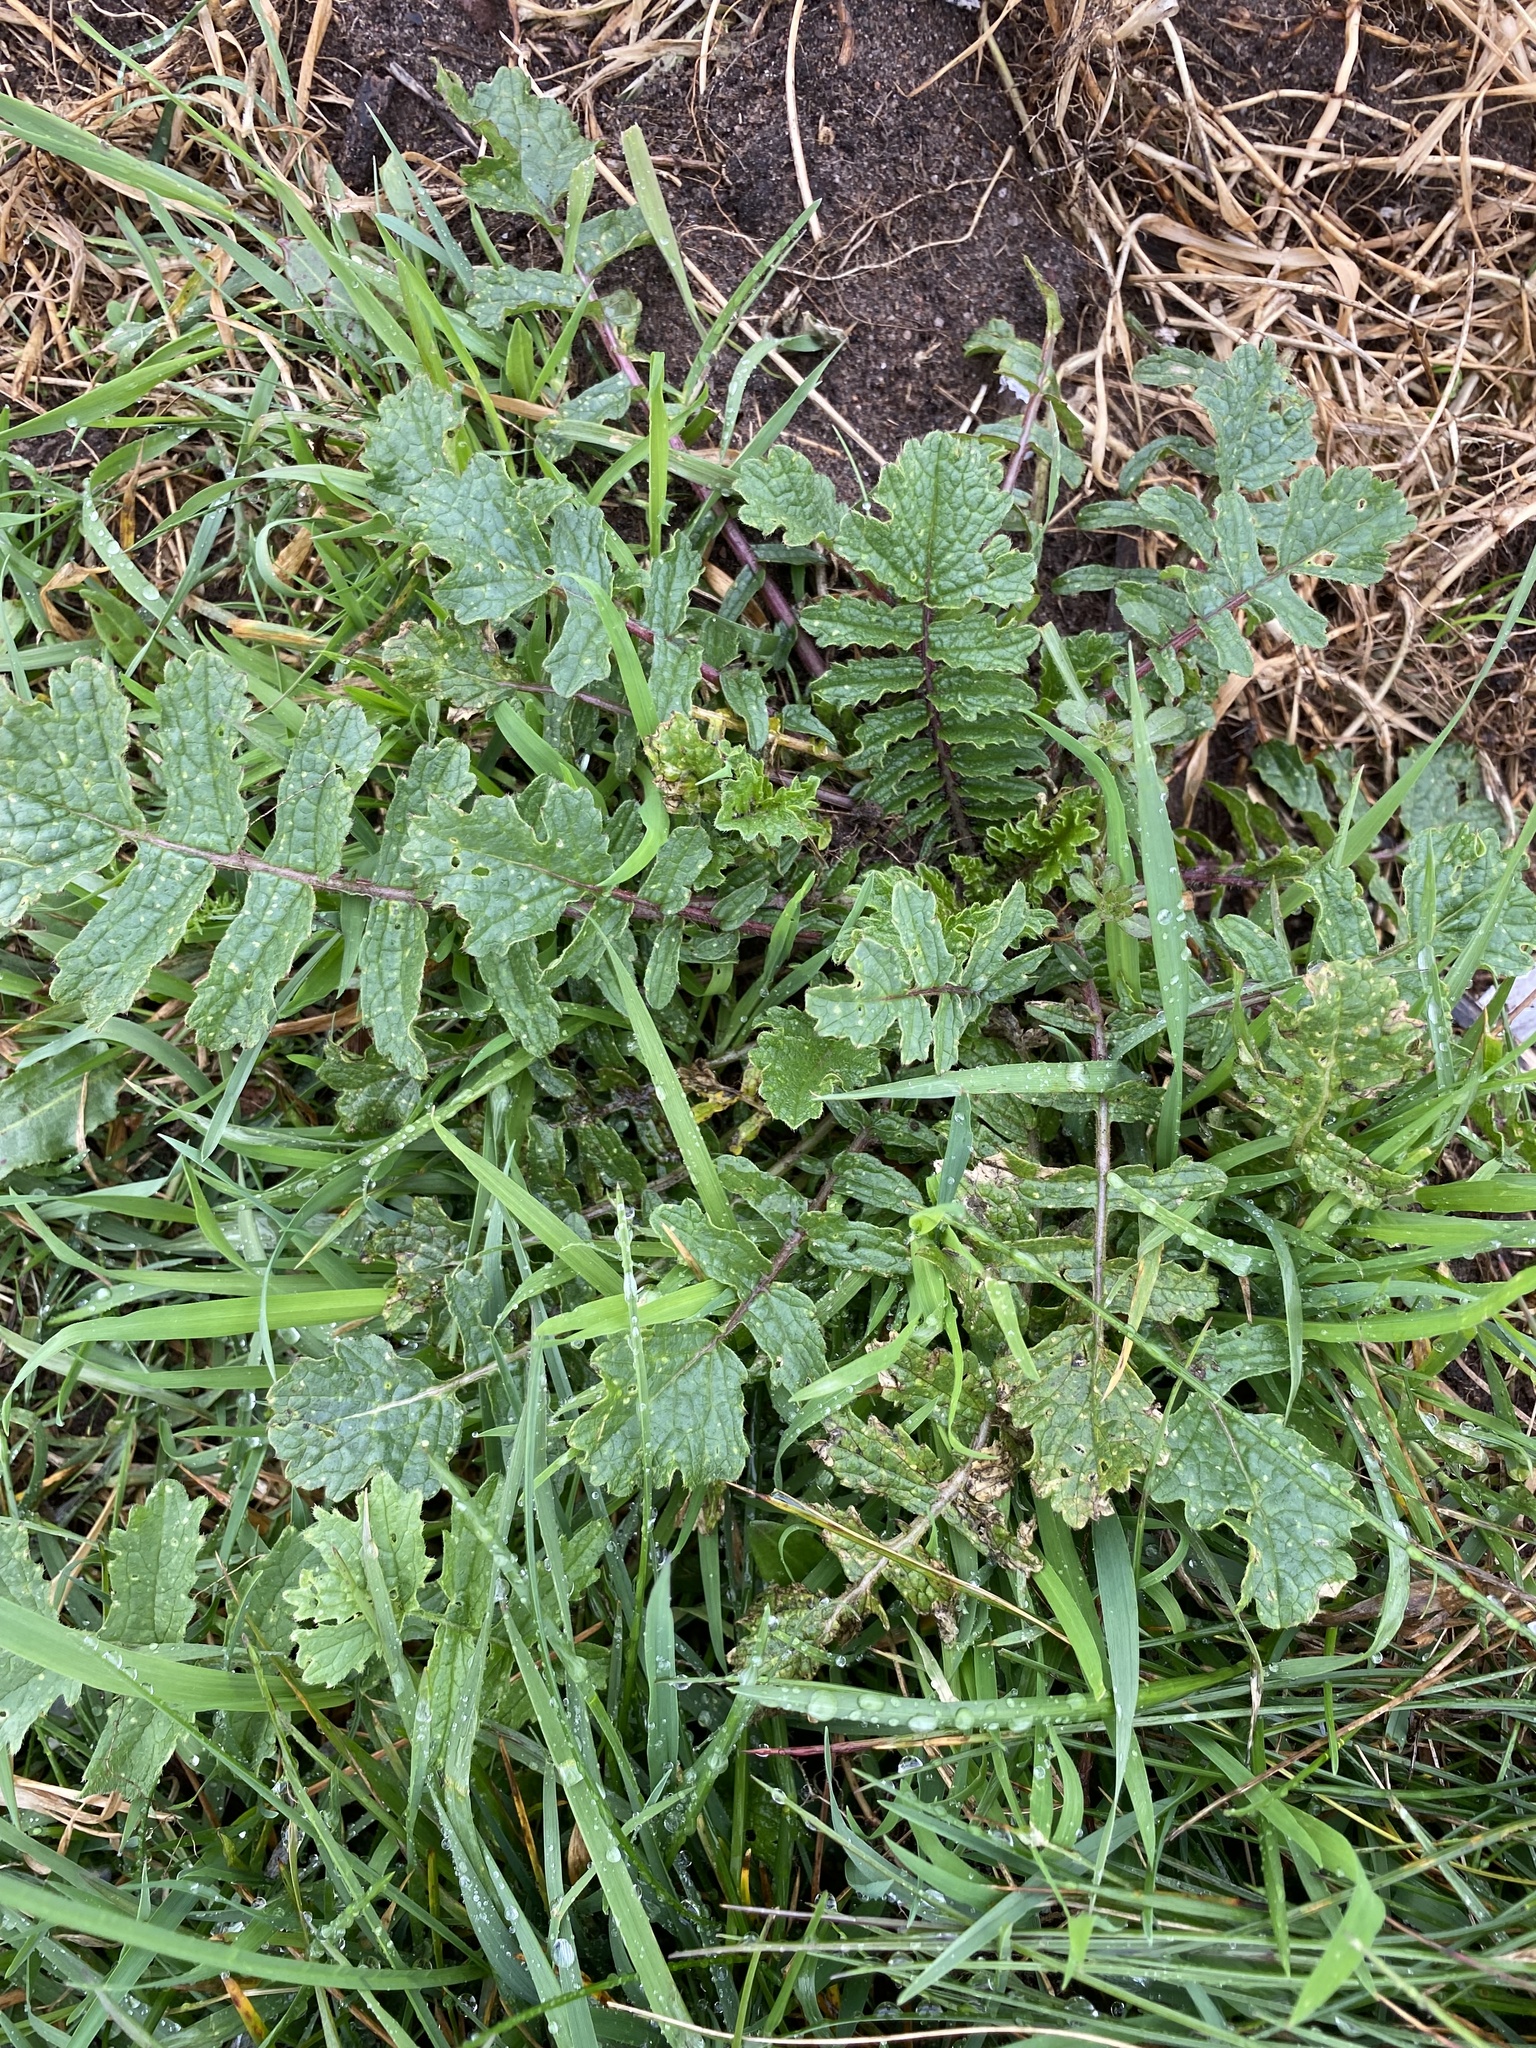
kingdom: Plantae
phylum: Tracheophyta
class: Magnoliopsida
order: Brassicales
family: Brassicaceae
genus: Raphanus
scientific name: Raphanus raphanistrum
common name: Wild radish
